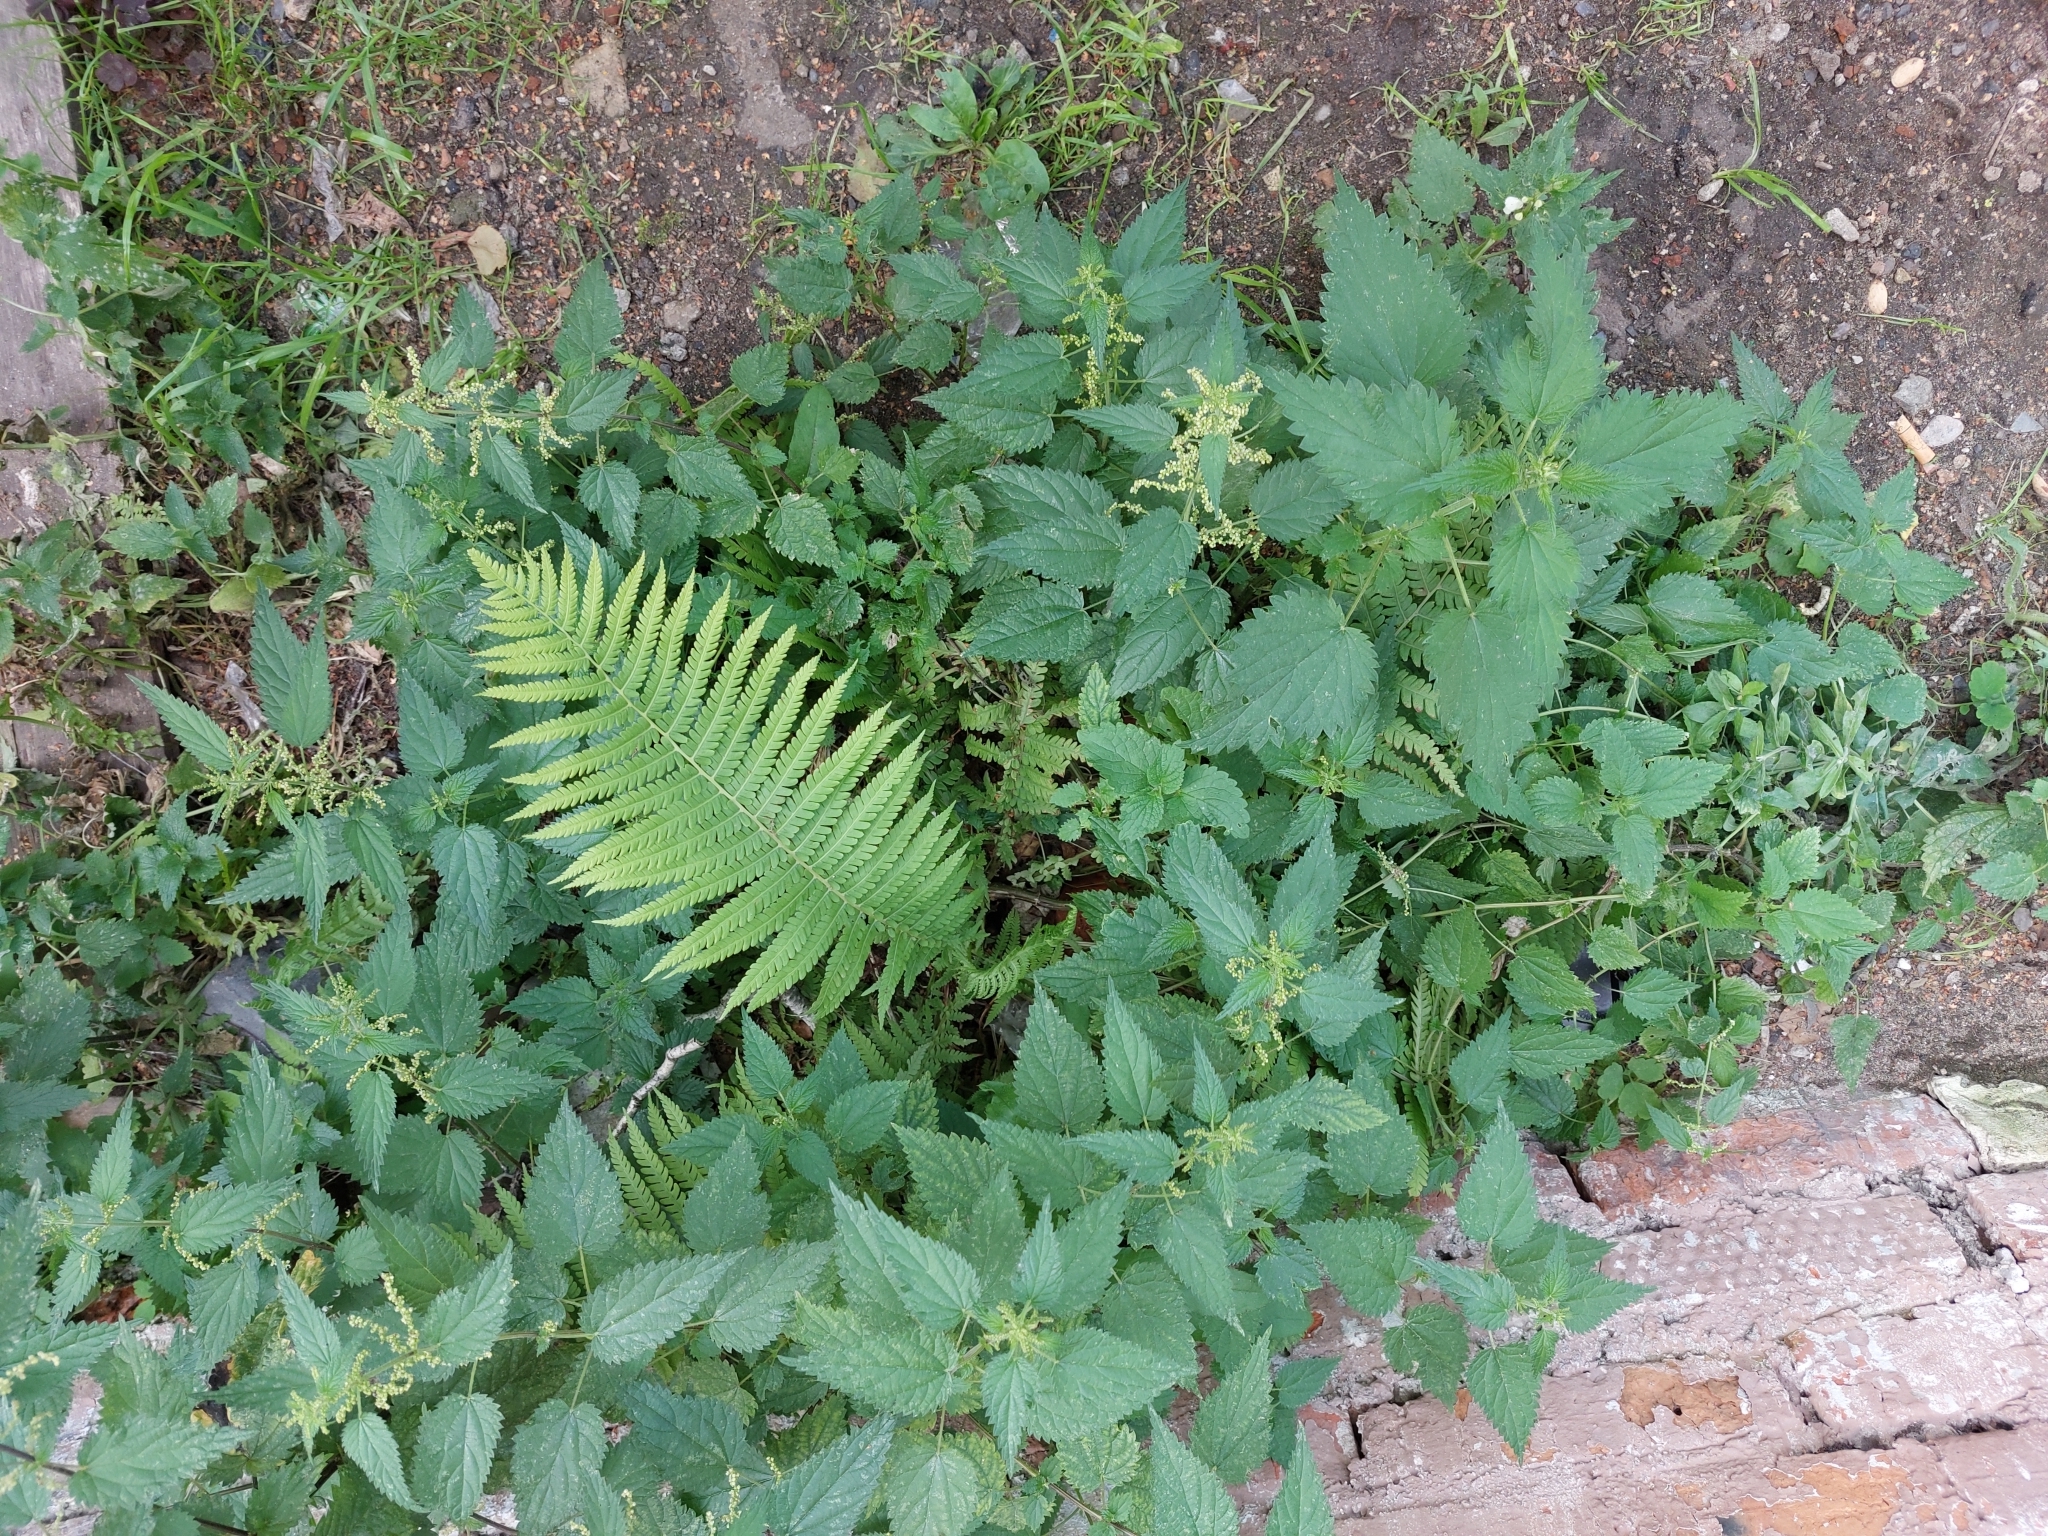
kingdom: Plantae
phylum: Tracheophyta
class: Polypodiopsida
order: Polypodiales
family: Onocleaceae
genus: Matteuccia
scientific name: Matteuccia struthiopteris
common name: Ostrich fern
